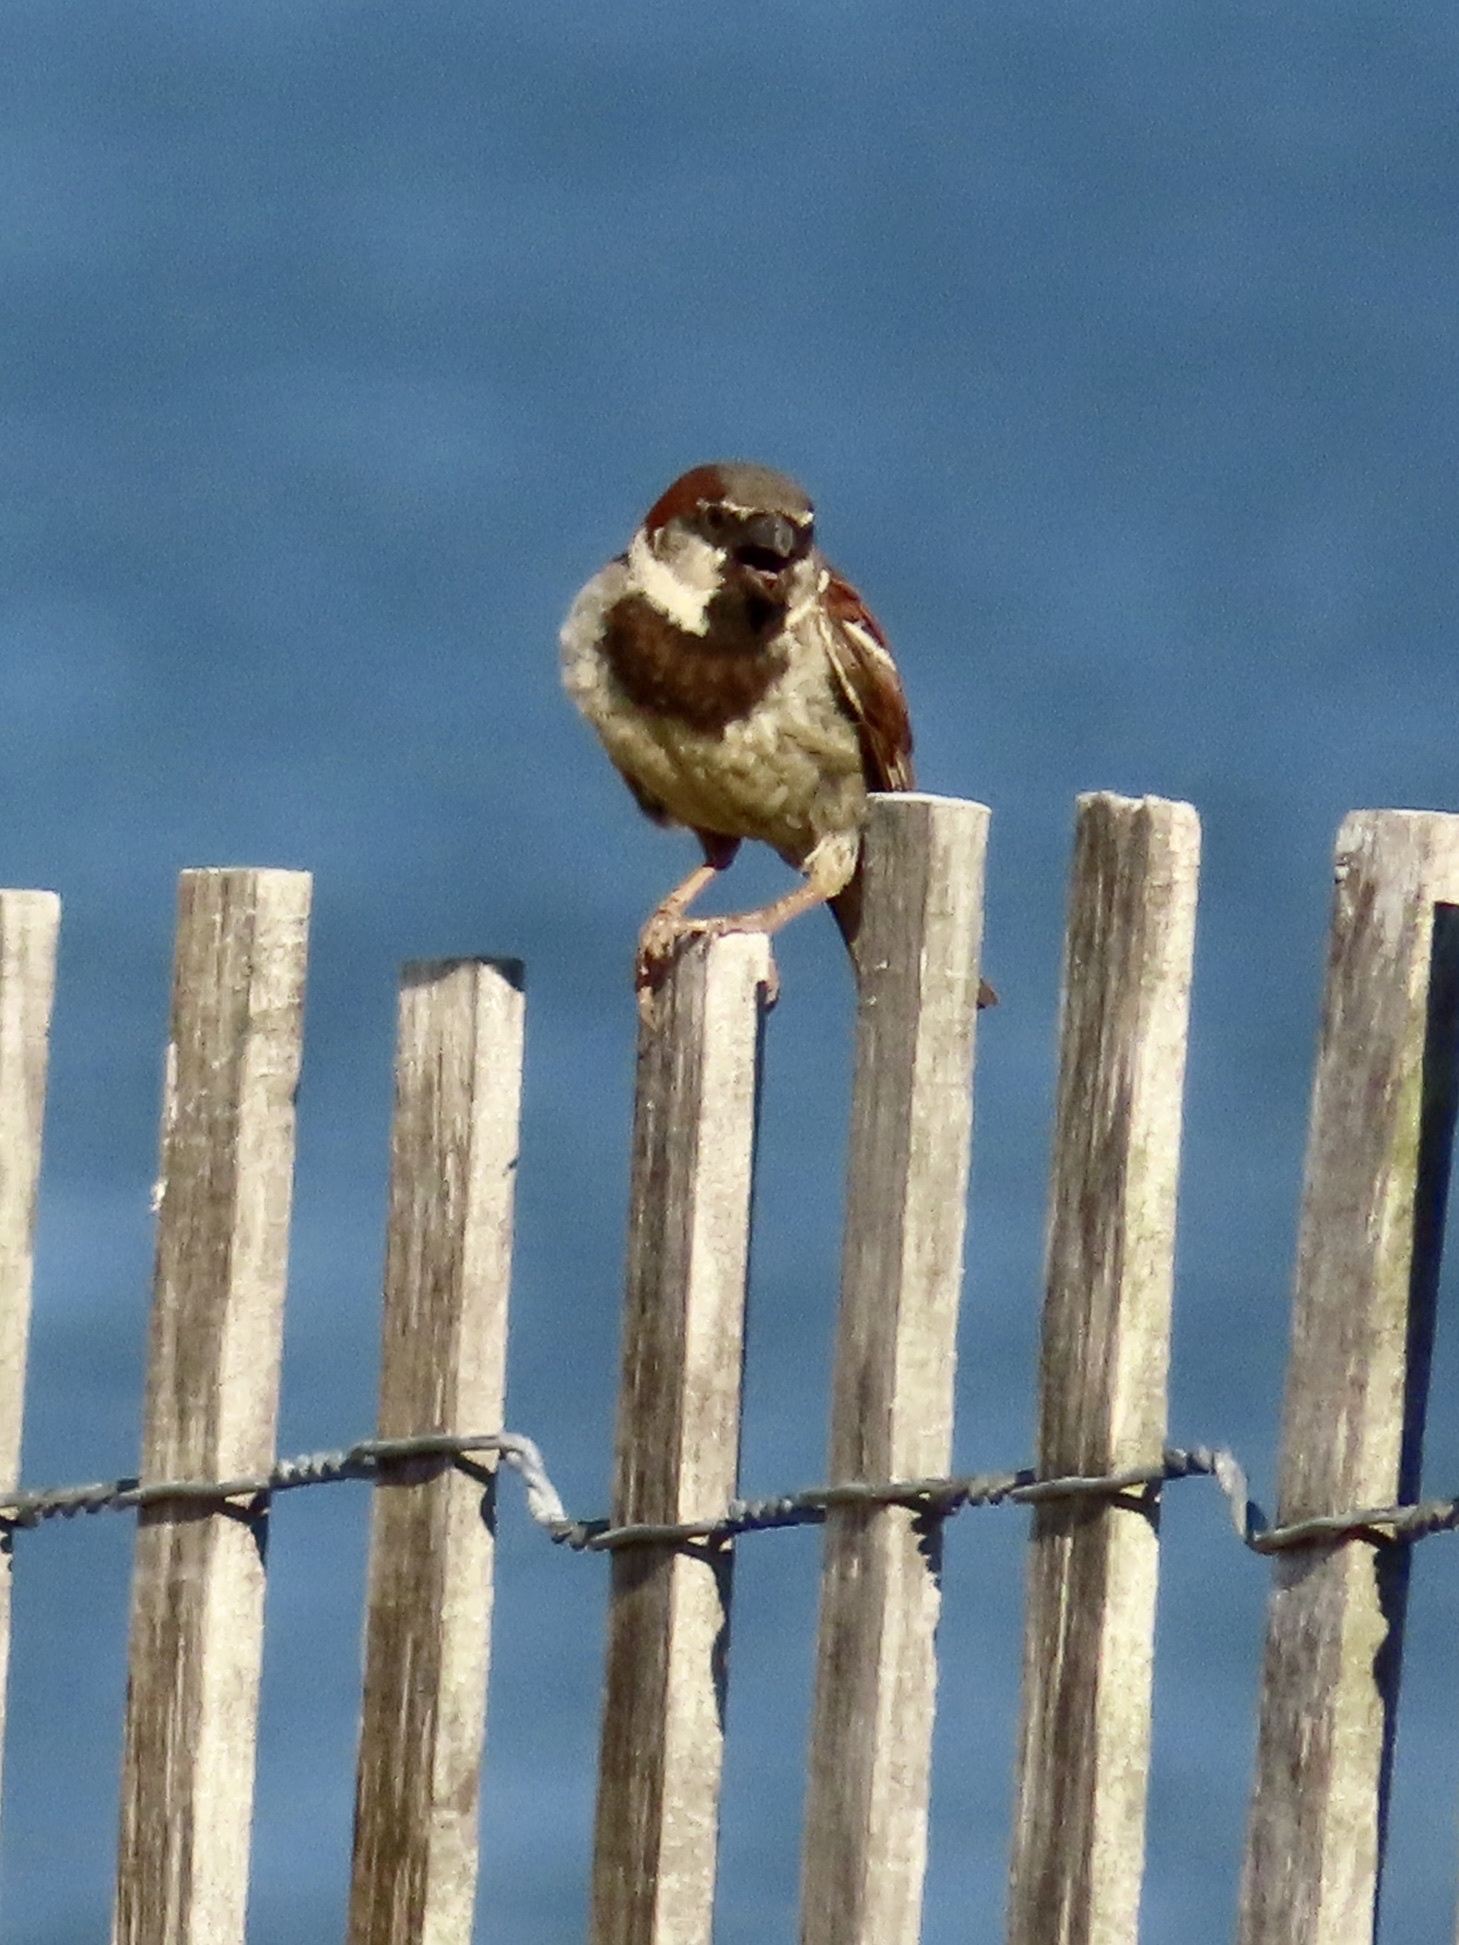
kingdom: Animalia
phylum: Chordata
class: Aves
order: Passeriformes
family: Passeridae
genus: Passer
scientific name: Passer domesticus
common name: House sparrow
